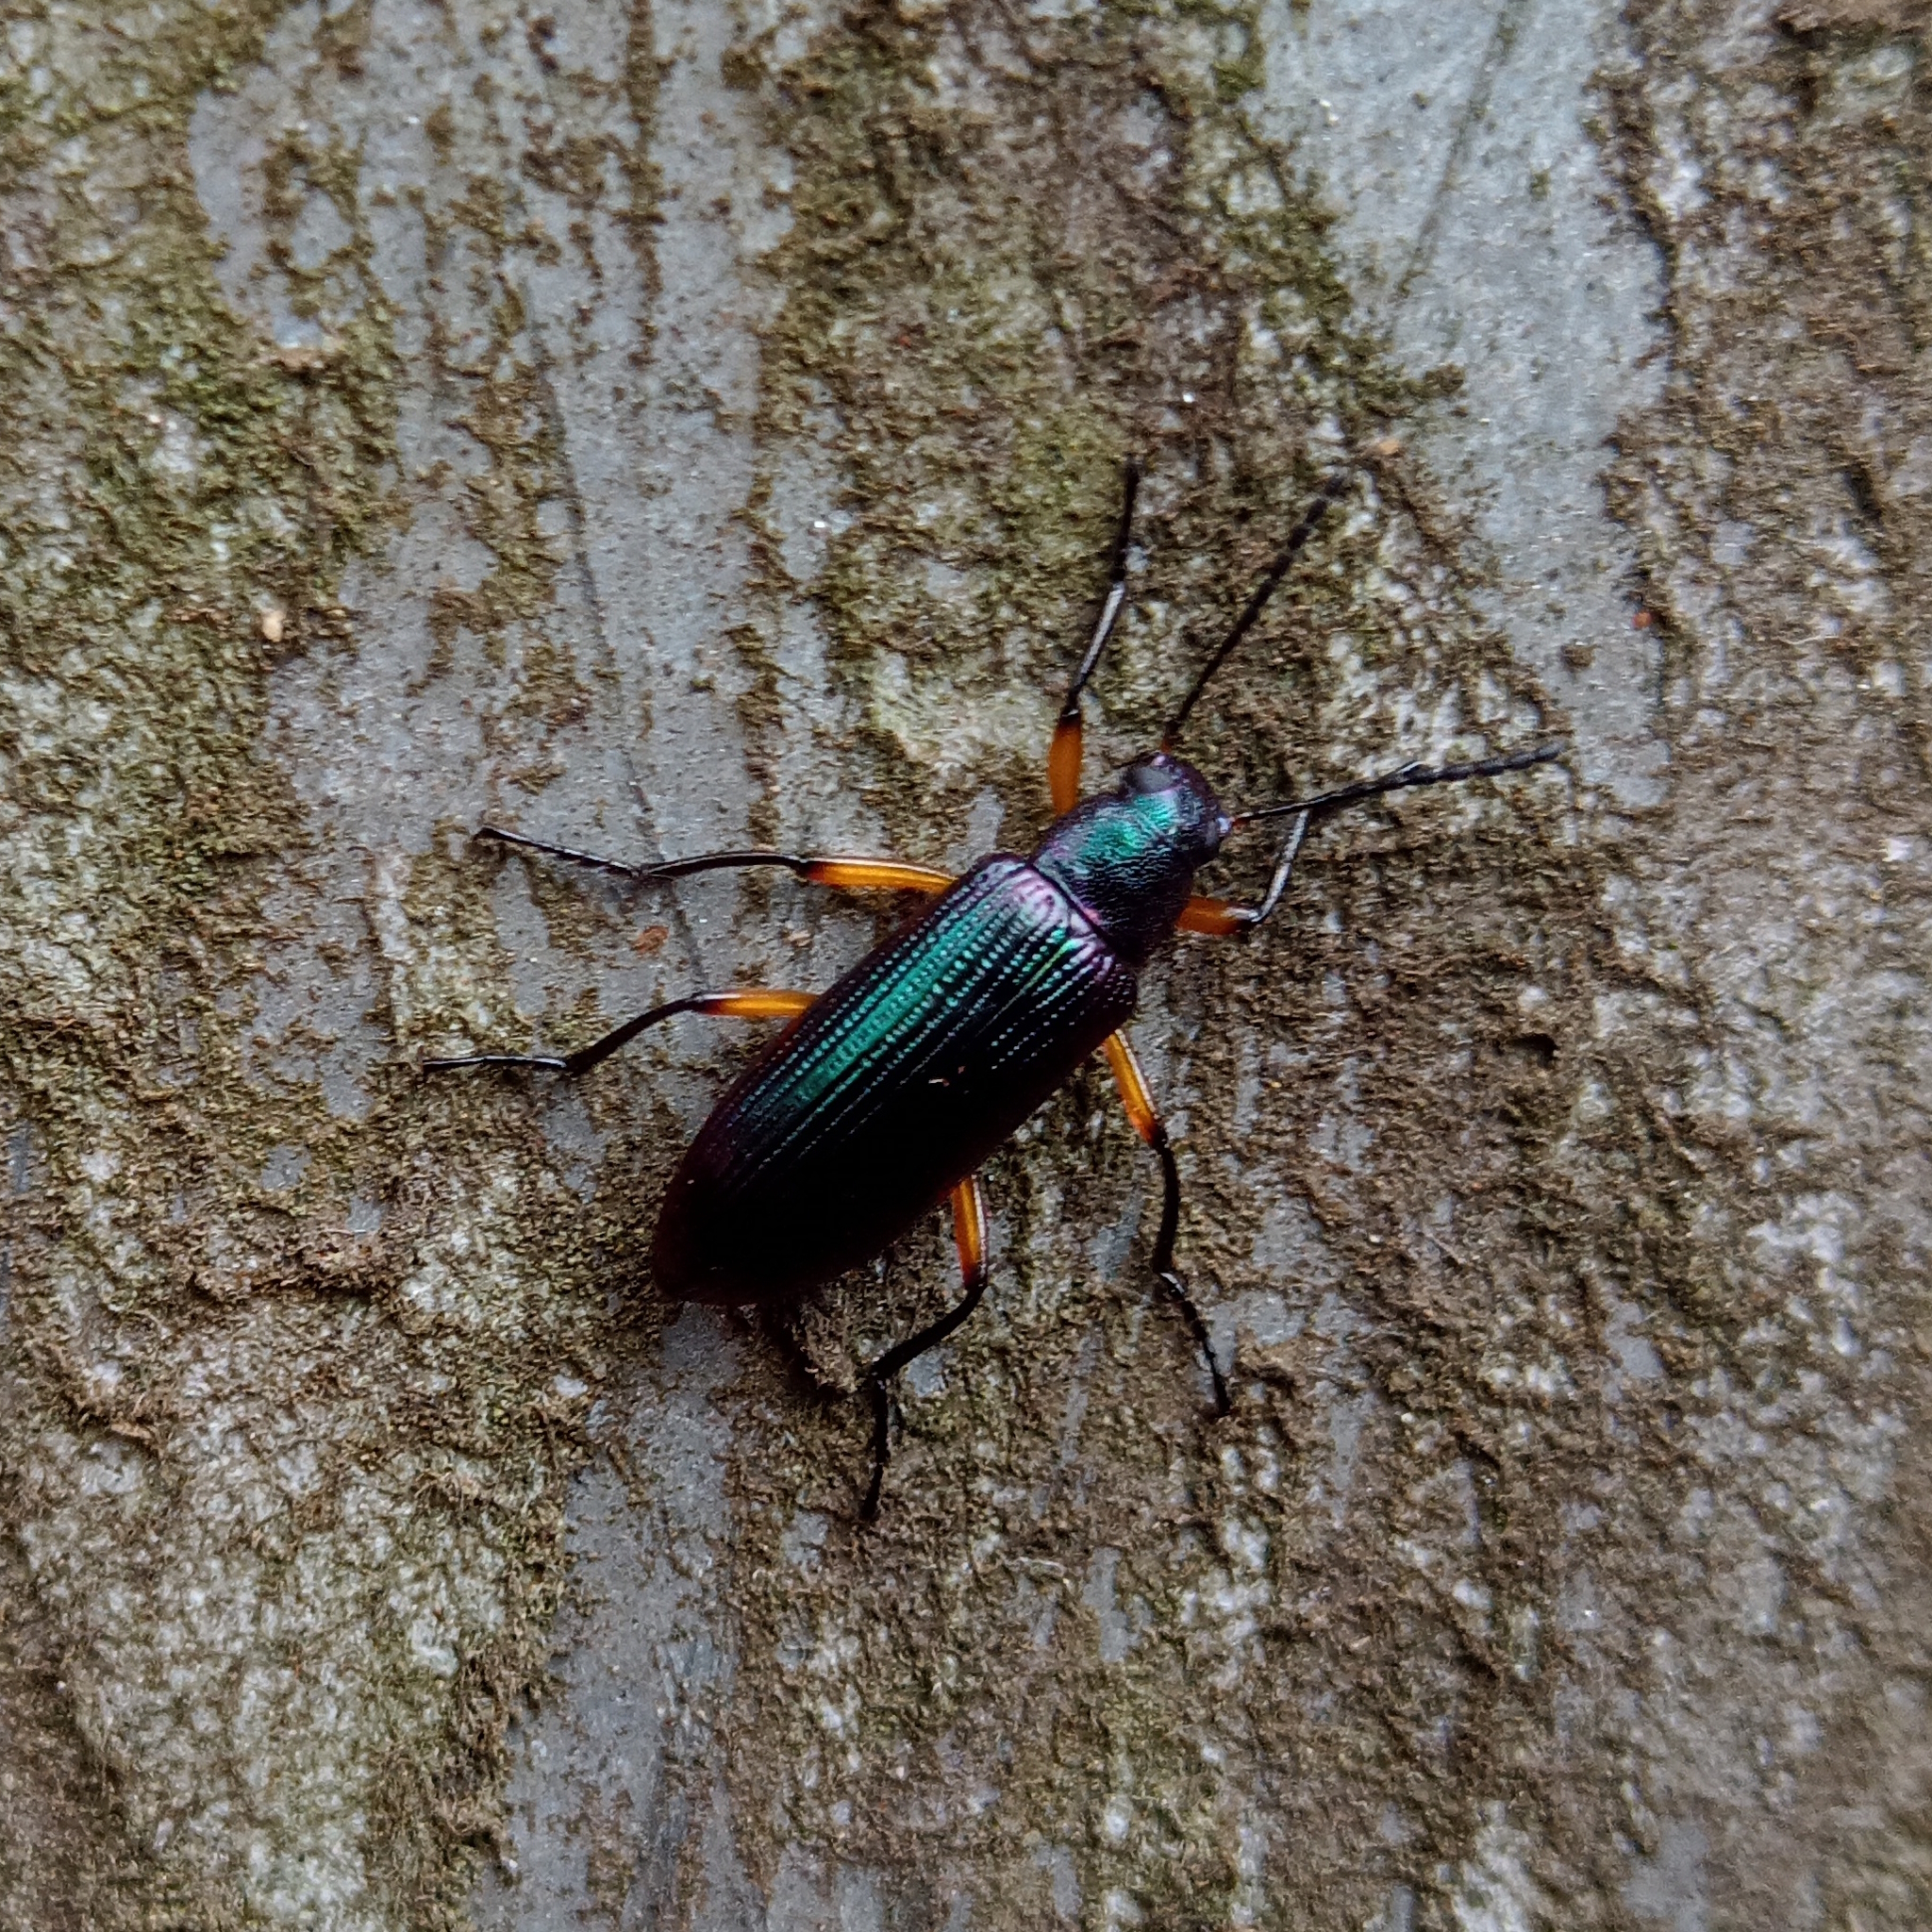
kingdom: Animalia
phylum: Arthropoda
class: Insecta
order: Coleoptera
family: Tenebrionidae
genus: Strongylium
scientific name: Strongylium
